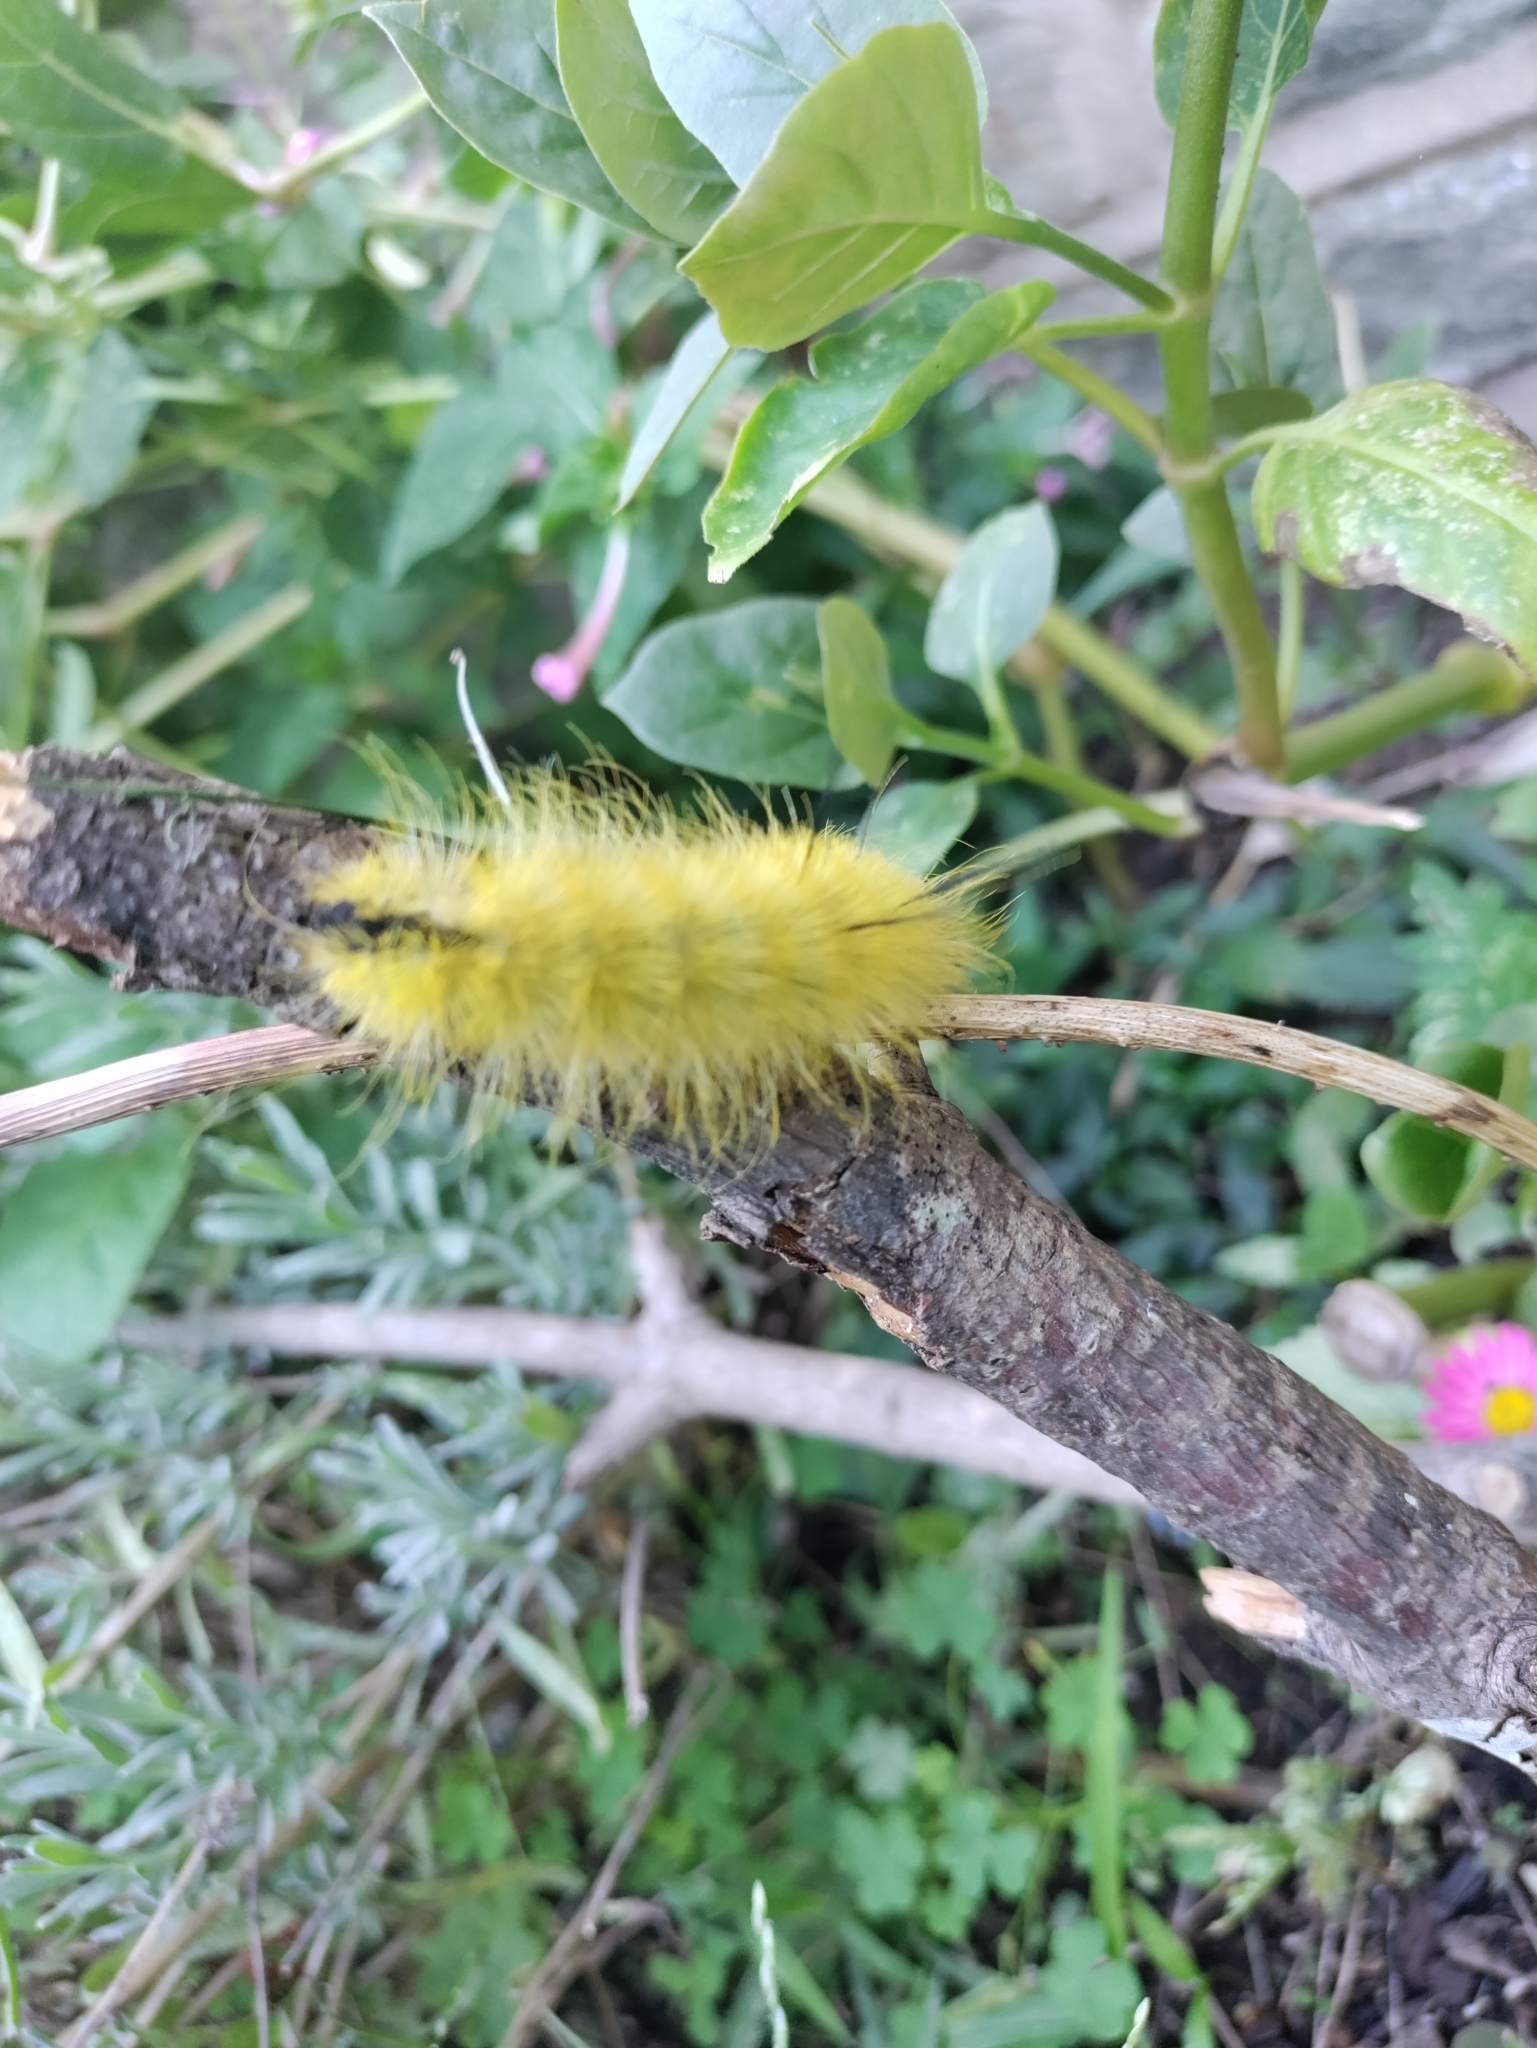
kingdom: Animalia
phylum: Arthropoda
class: Insecta
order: Lepidoptera
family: Noctuidae
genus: Acronicta
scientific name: Acronicta americana
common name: American dagger
